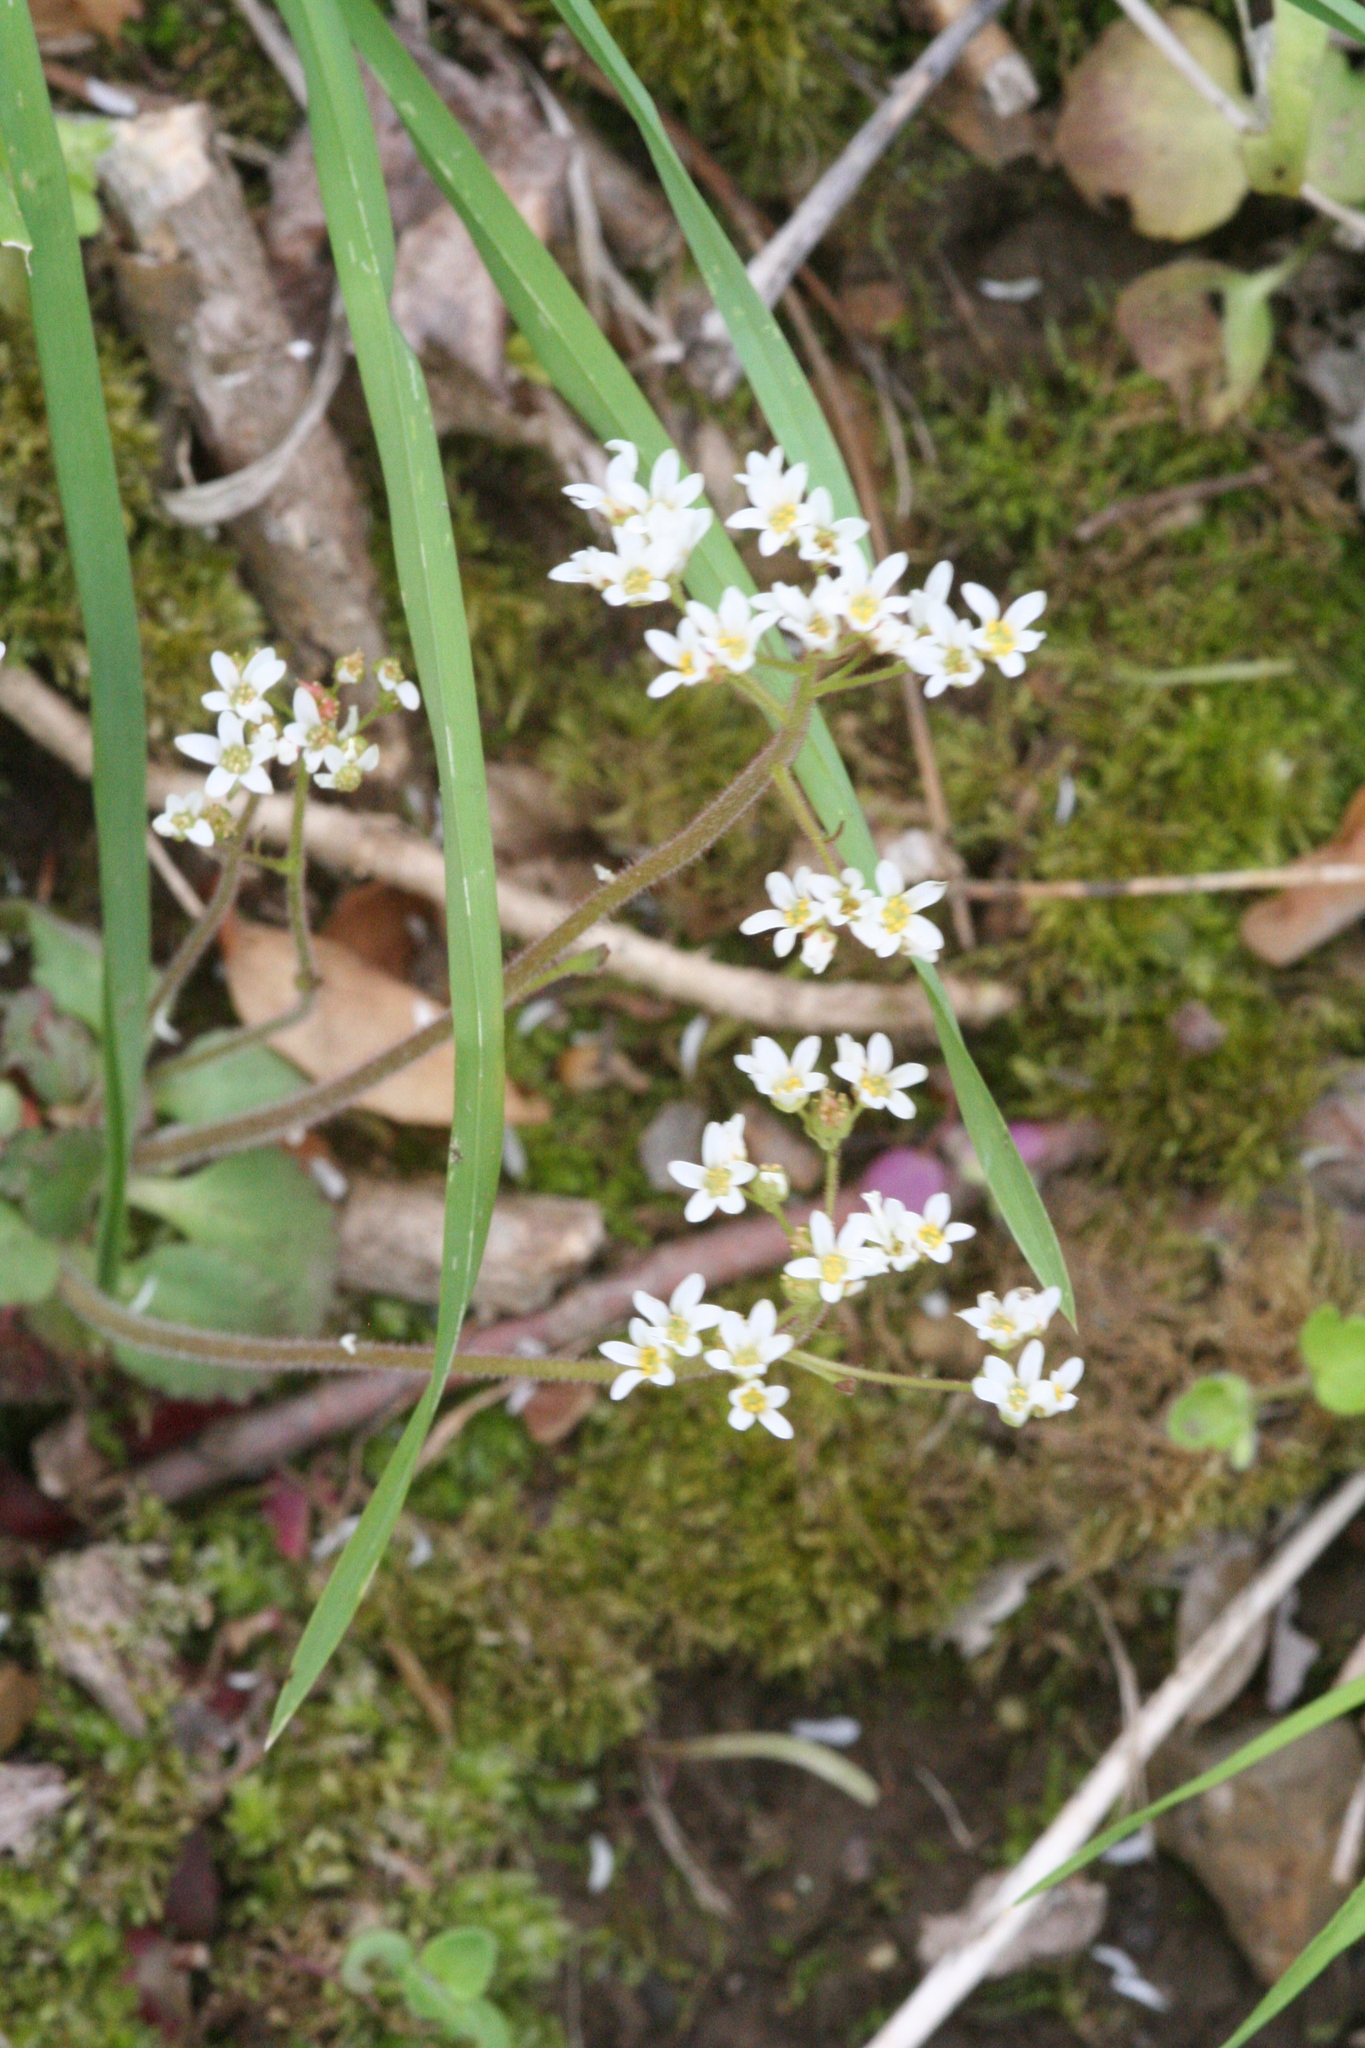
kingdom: Plantae
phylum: Tracheophyta
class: Magnoliopsida
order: Saxifragales
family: Saxifragaceae
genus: Micranthes
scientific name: Micranthes virginiensis
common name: Early saxifrage
